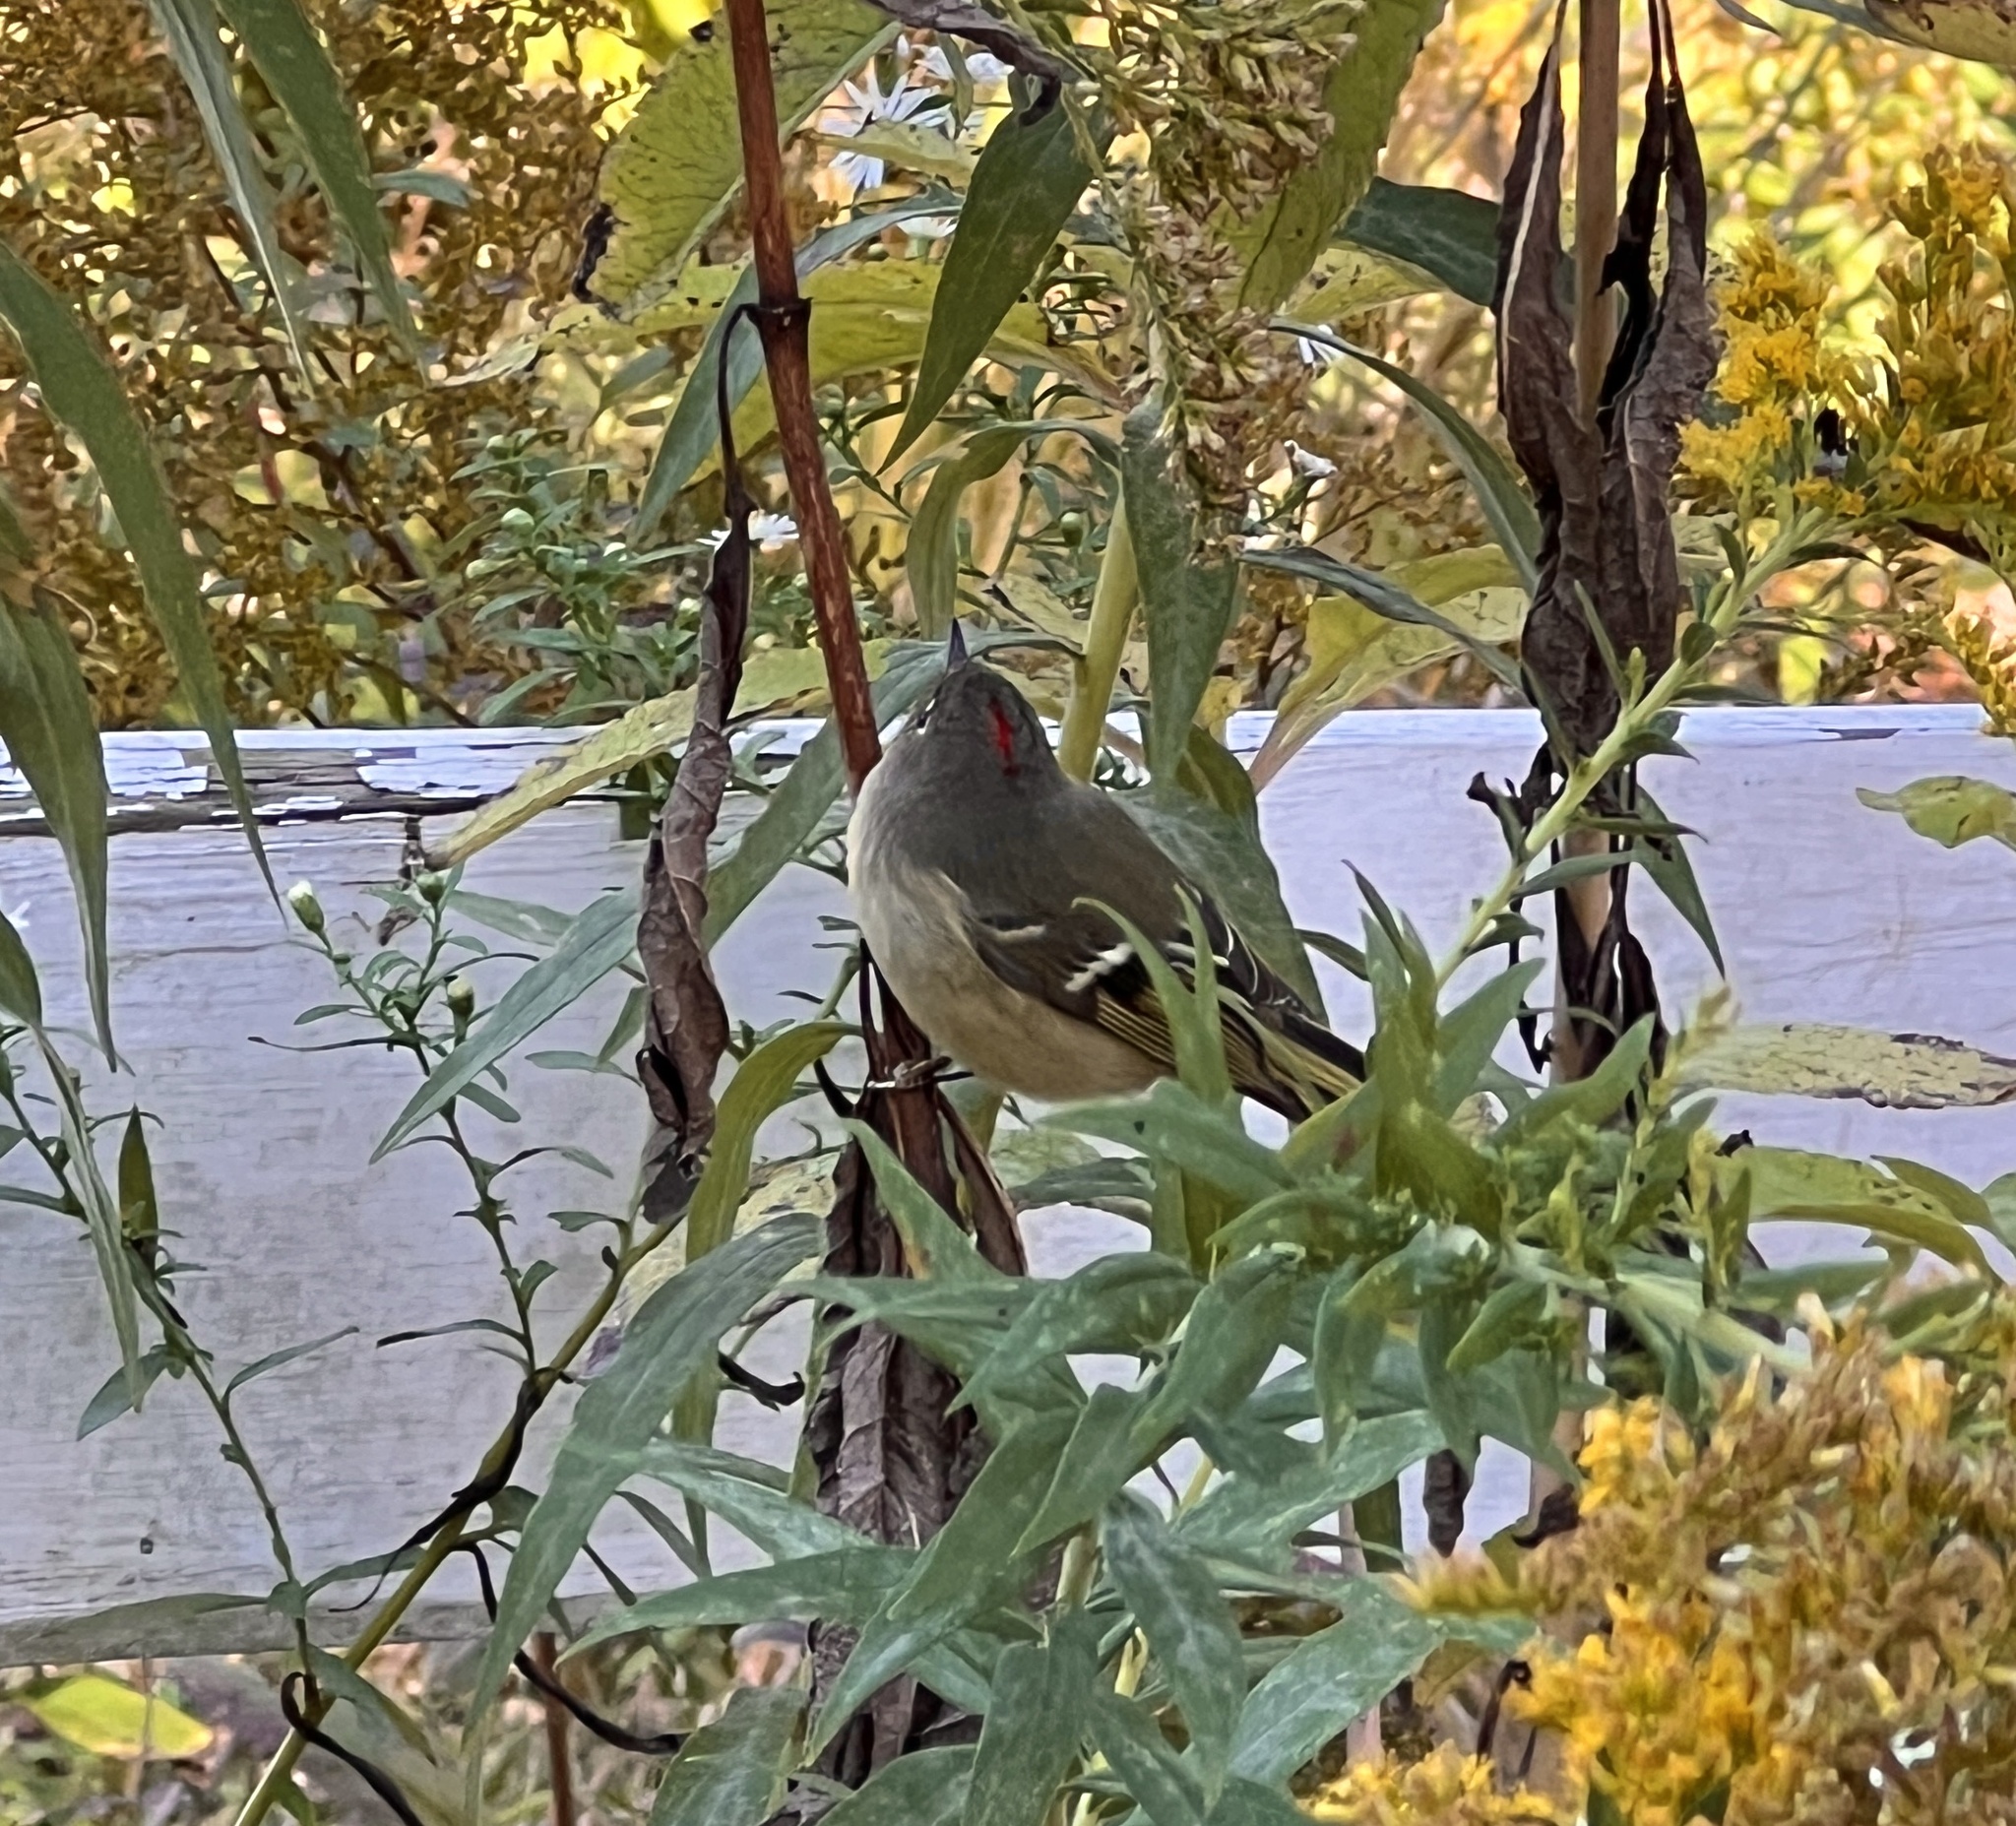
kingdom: Animalia
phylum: Chordata
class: Aves
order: Passeriformes
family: Regulidae
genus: Regulus
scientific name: Regulus calendula
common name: Ruby-crowned kinglet
